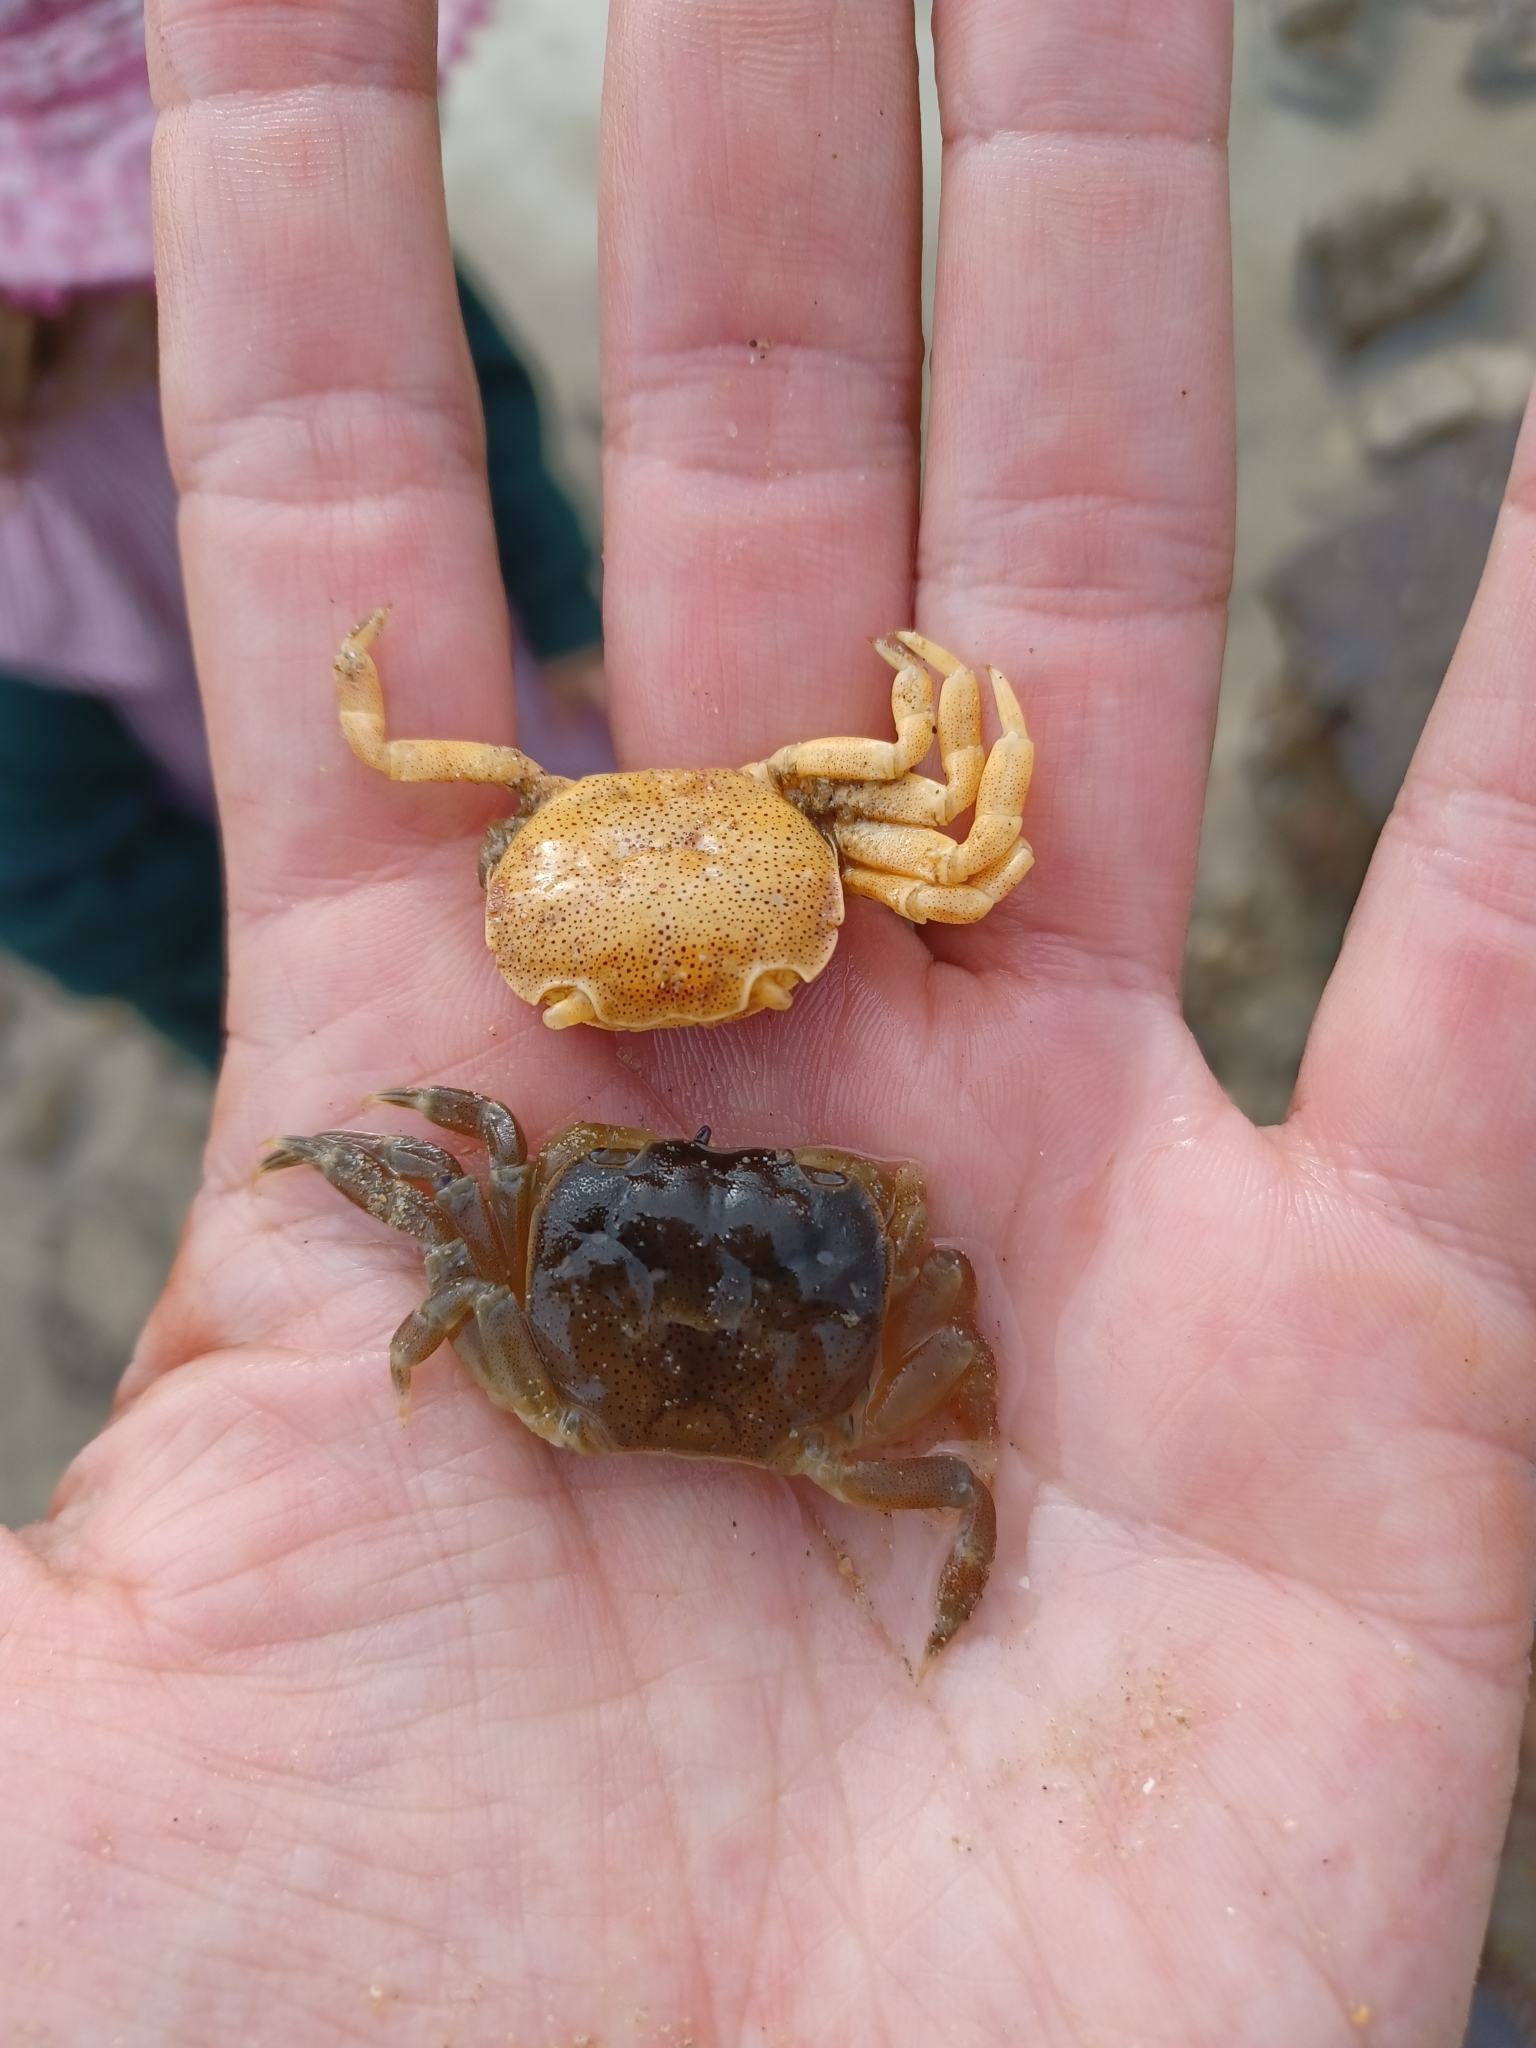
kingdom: Animalia
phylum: Arthropoda
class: Malacostraca
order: Decapoda
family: Varunidae
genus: Paragrapsus
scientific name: Paragrapsus quadridentatus
